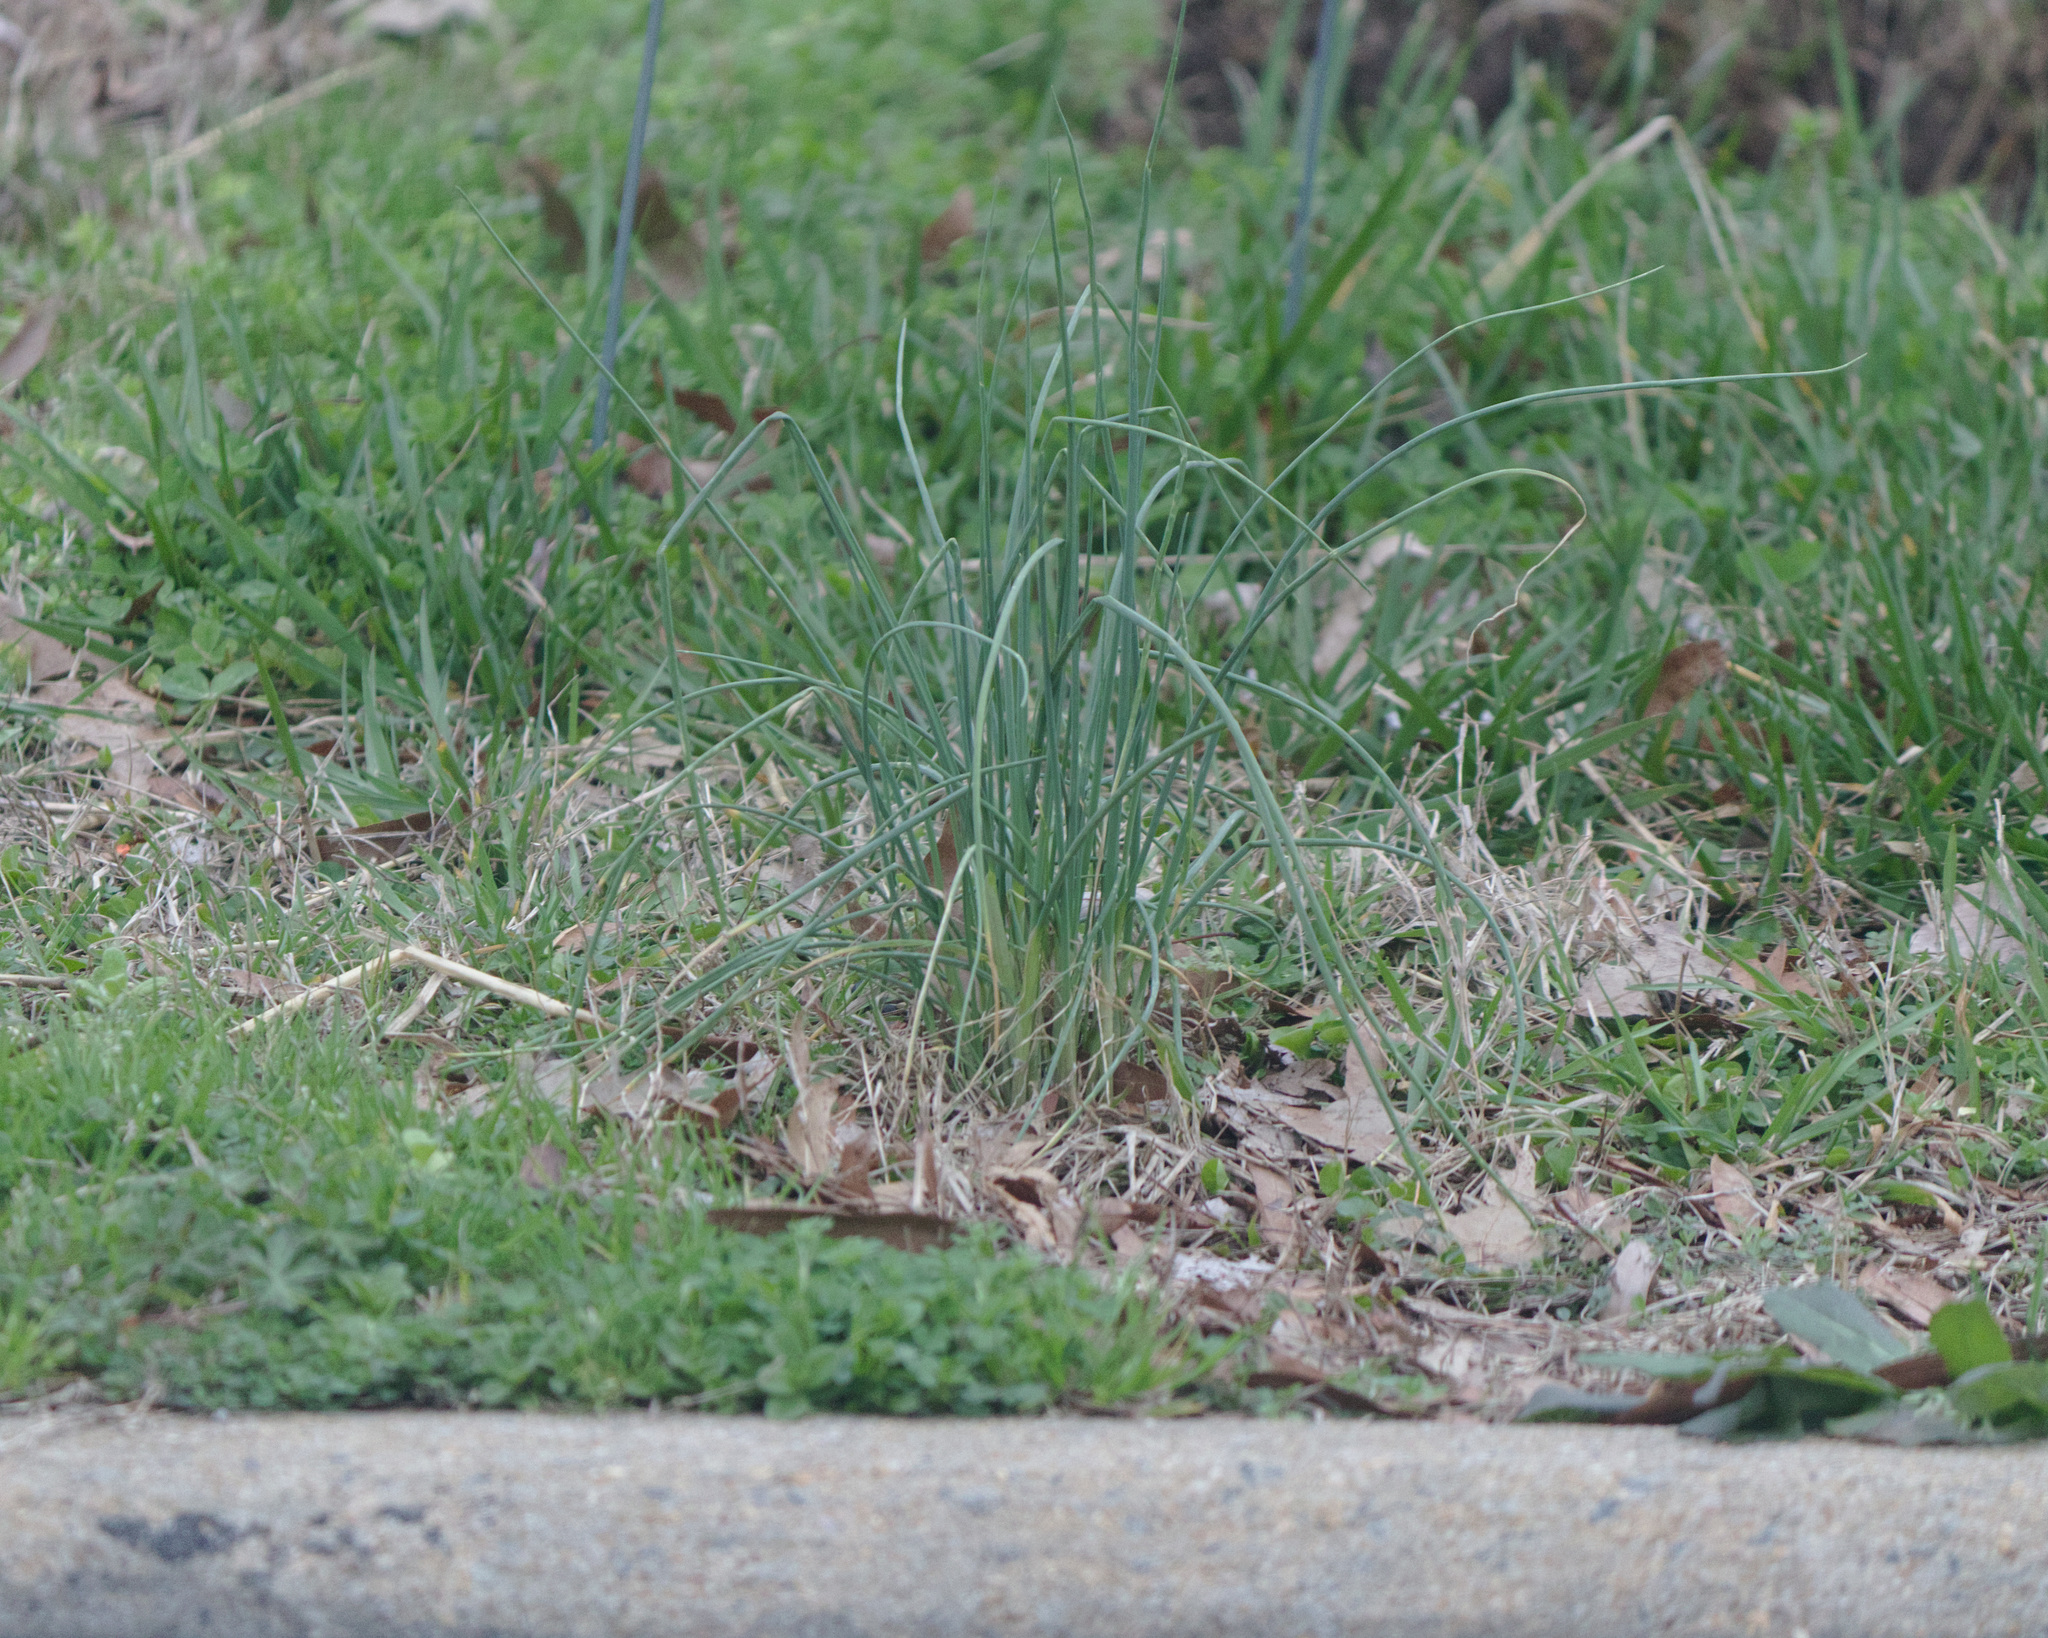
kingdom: Plantae
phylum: Tracheophyta
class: Liliopsida
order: Asparagales
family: Amaryllidaceae
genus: Allium
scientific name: Allium vineale
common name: Crow garlic
